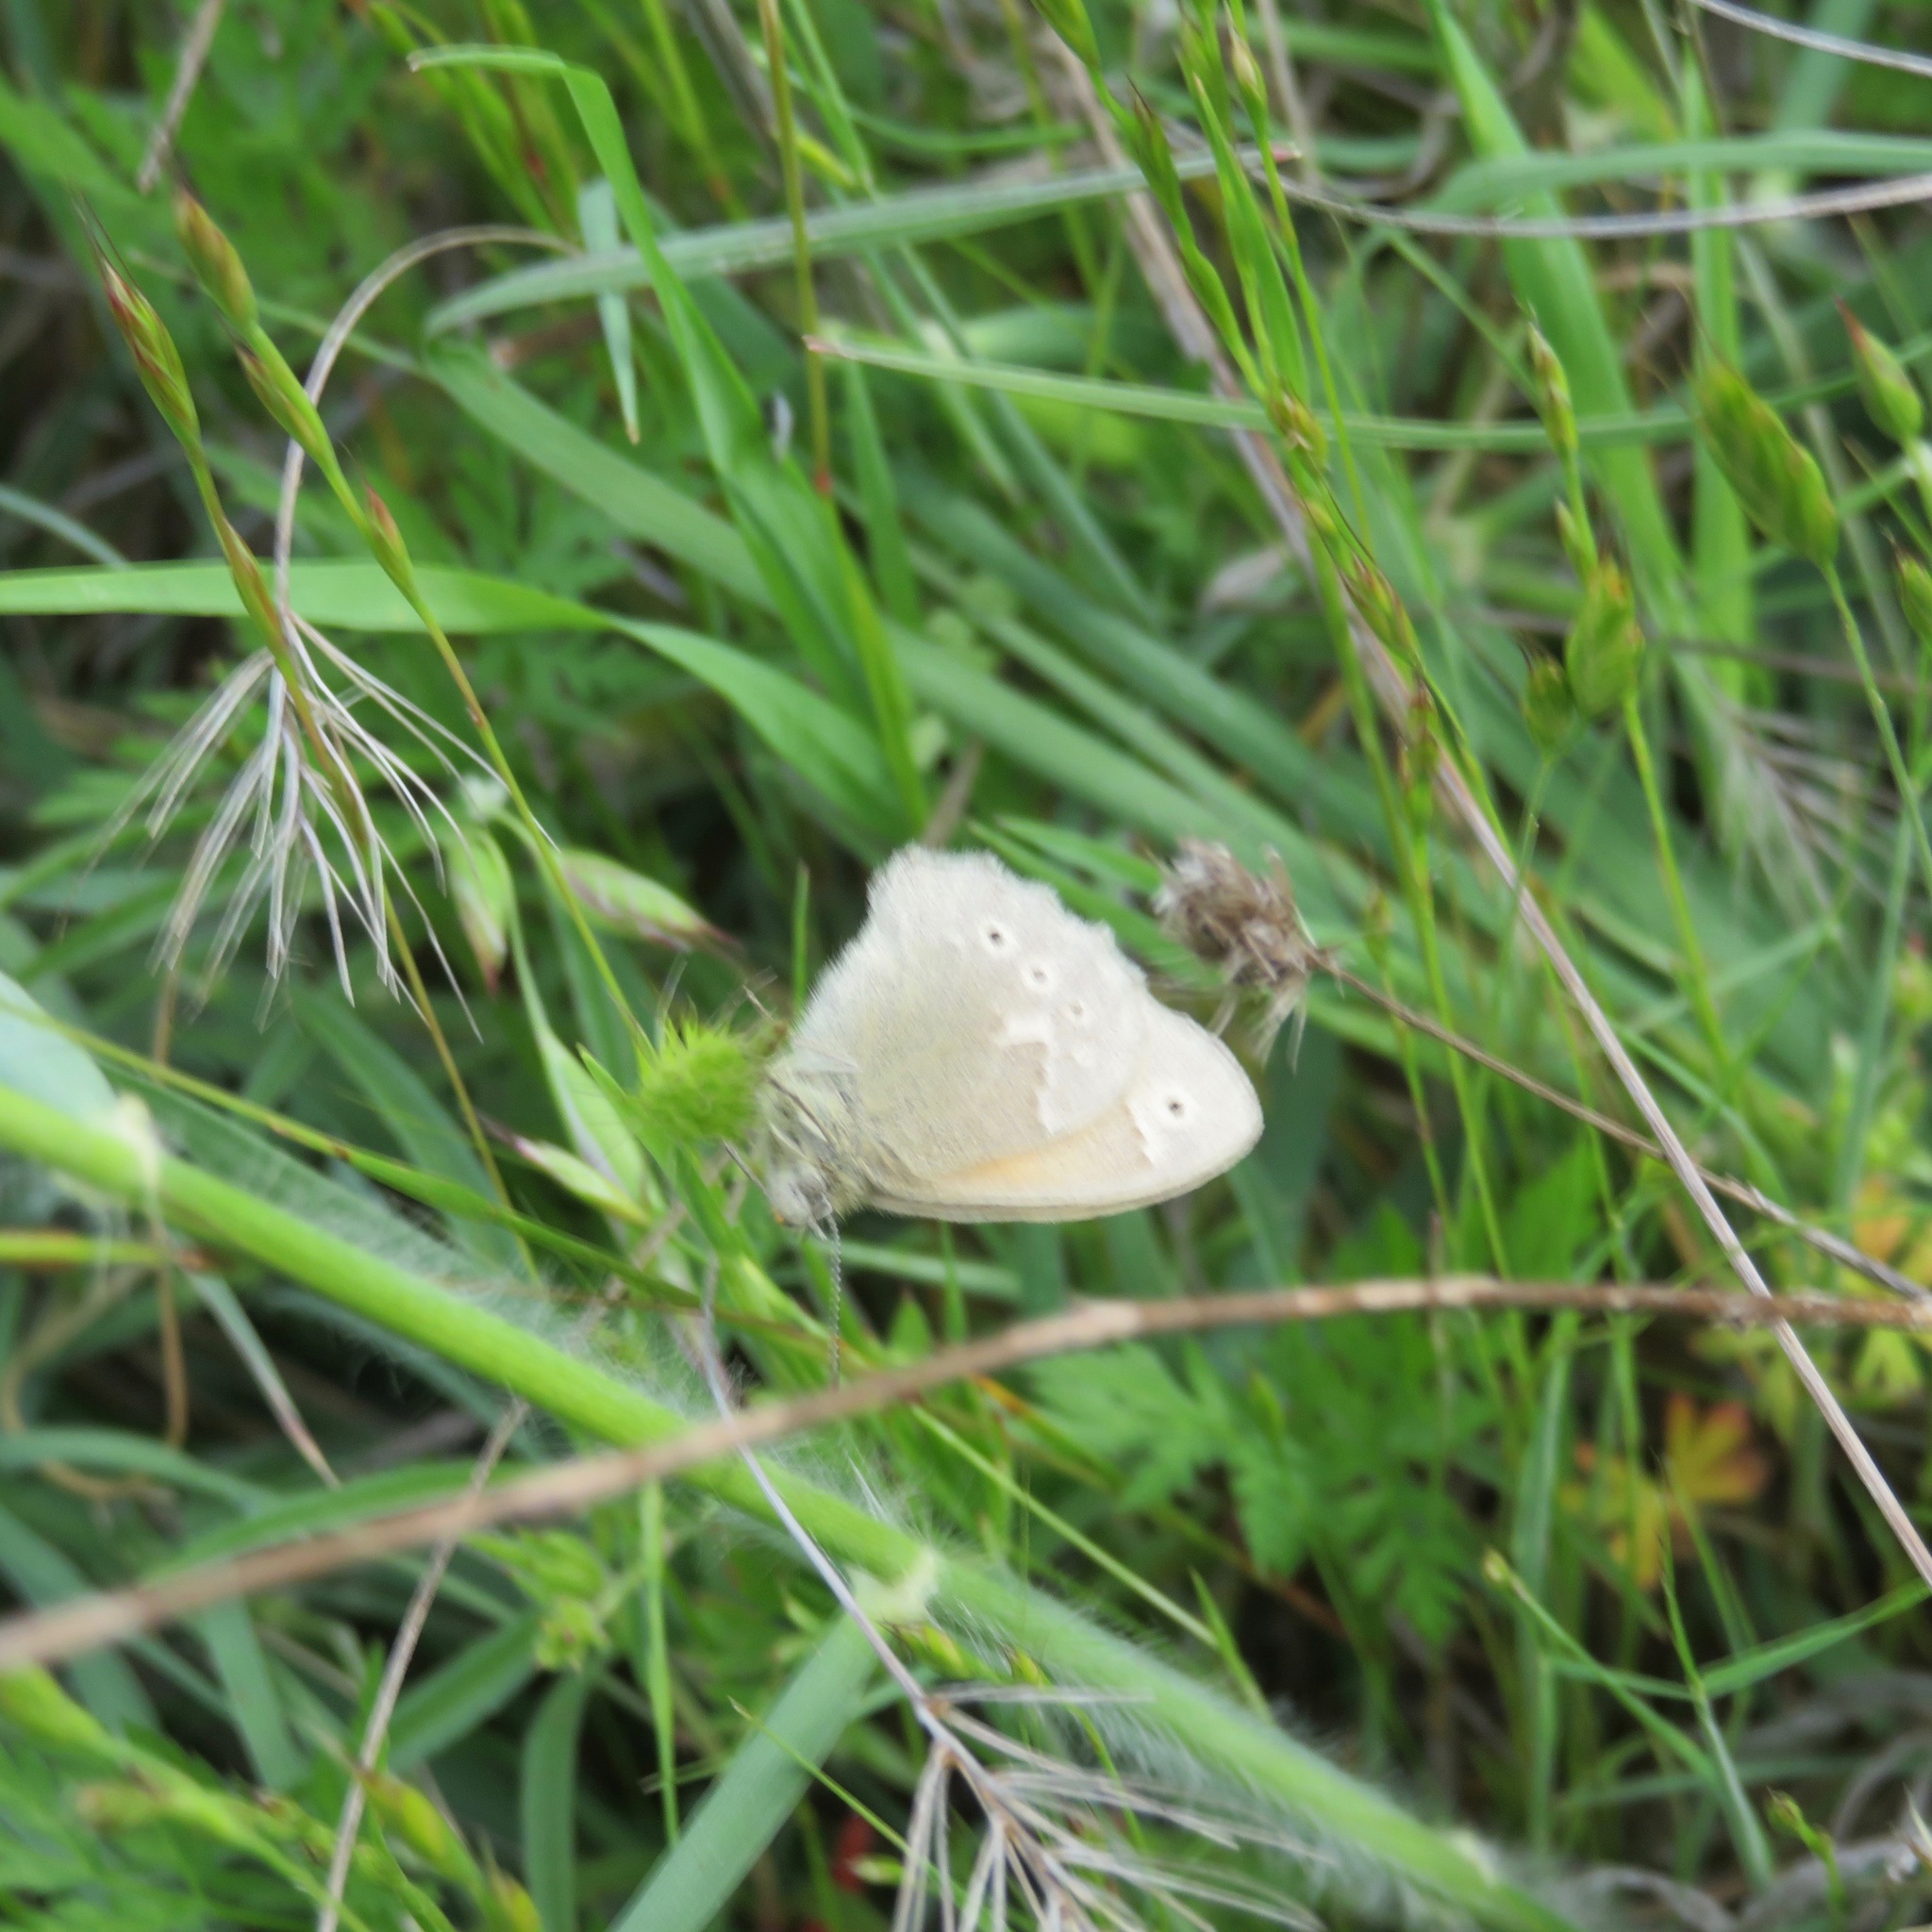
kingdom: Animalia
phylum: Arthropoda
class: Insecta
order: Lepidoptera
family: Nymphalidae
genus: Coenonympha
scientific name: Coenonympha california
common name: Common ringlet
